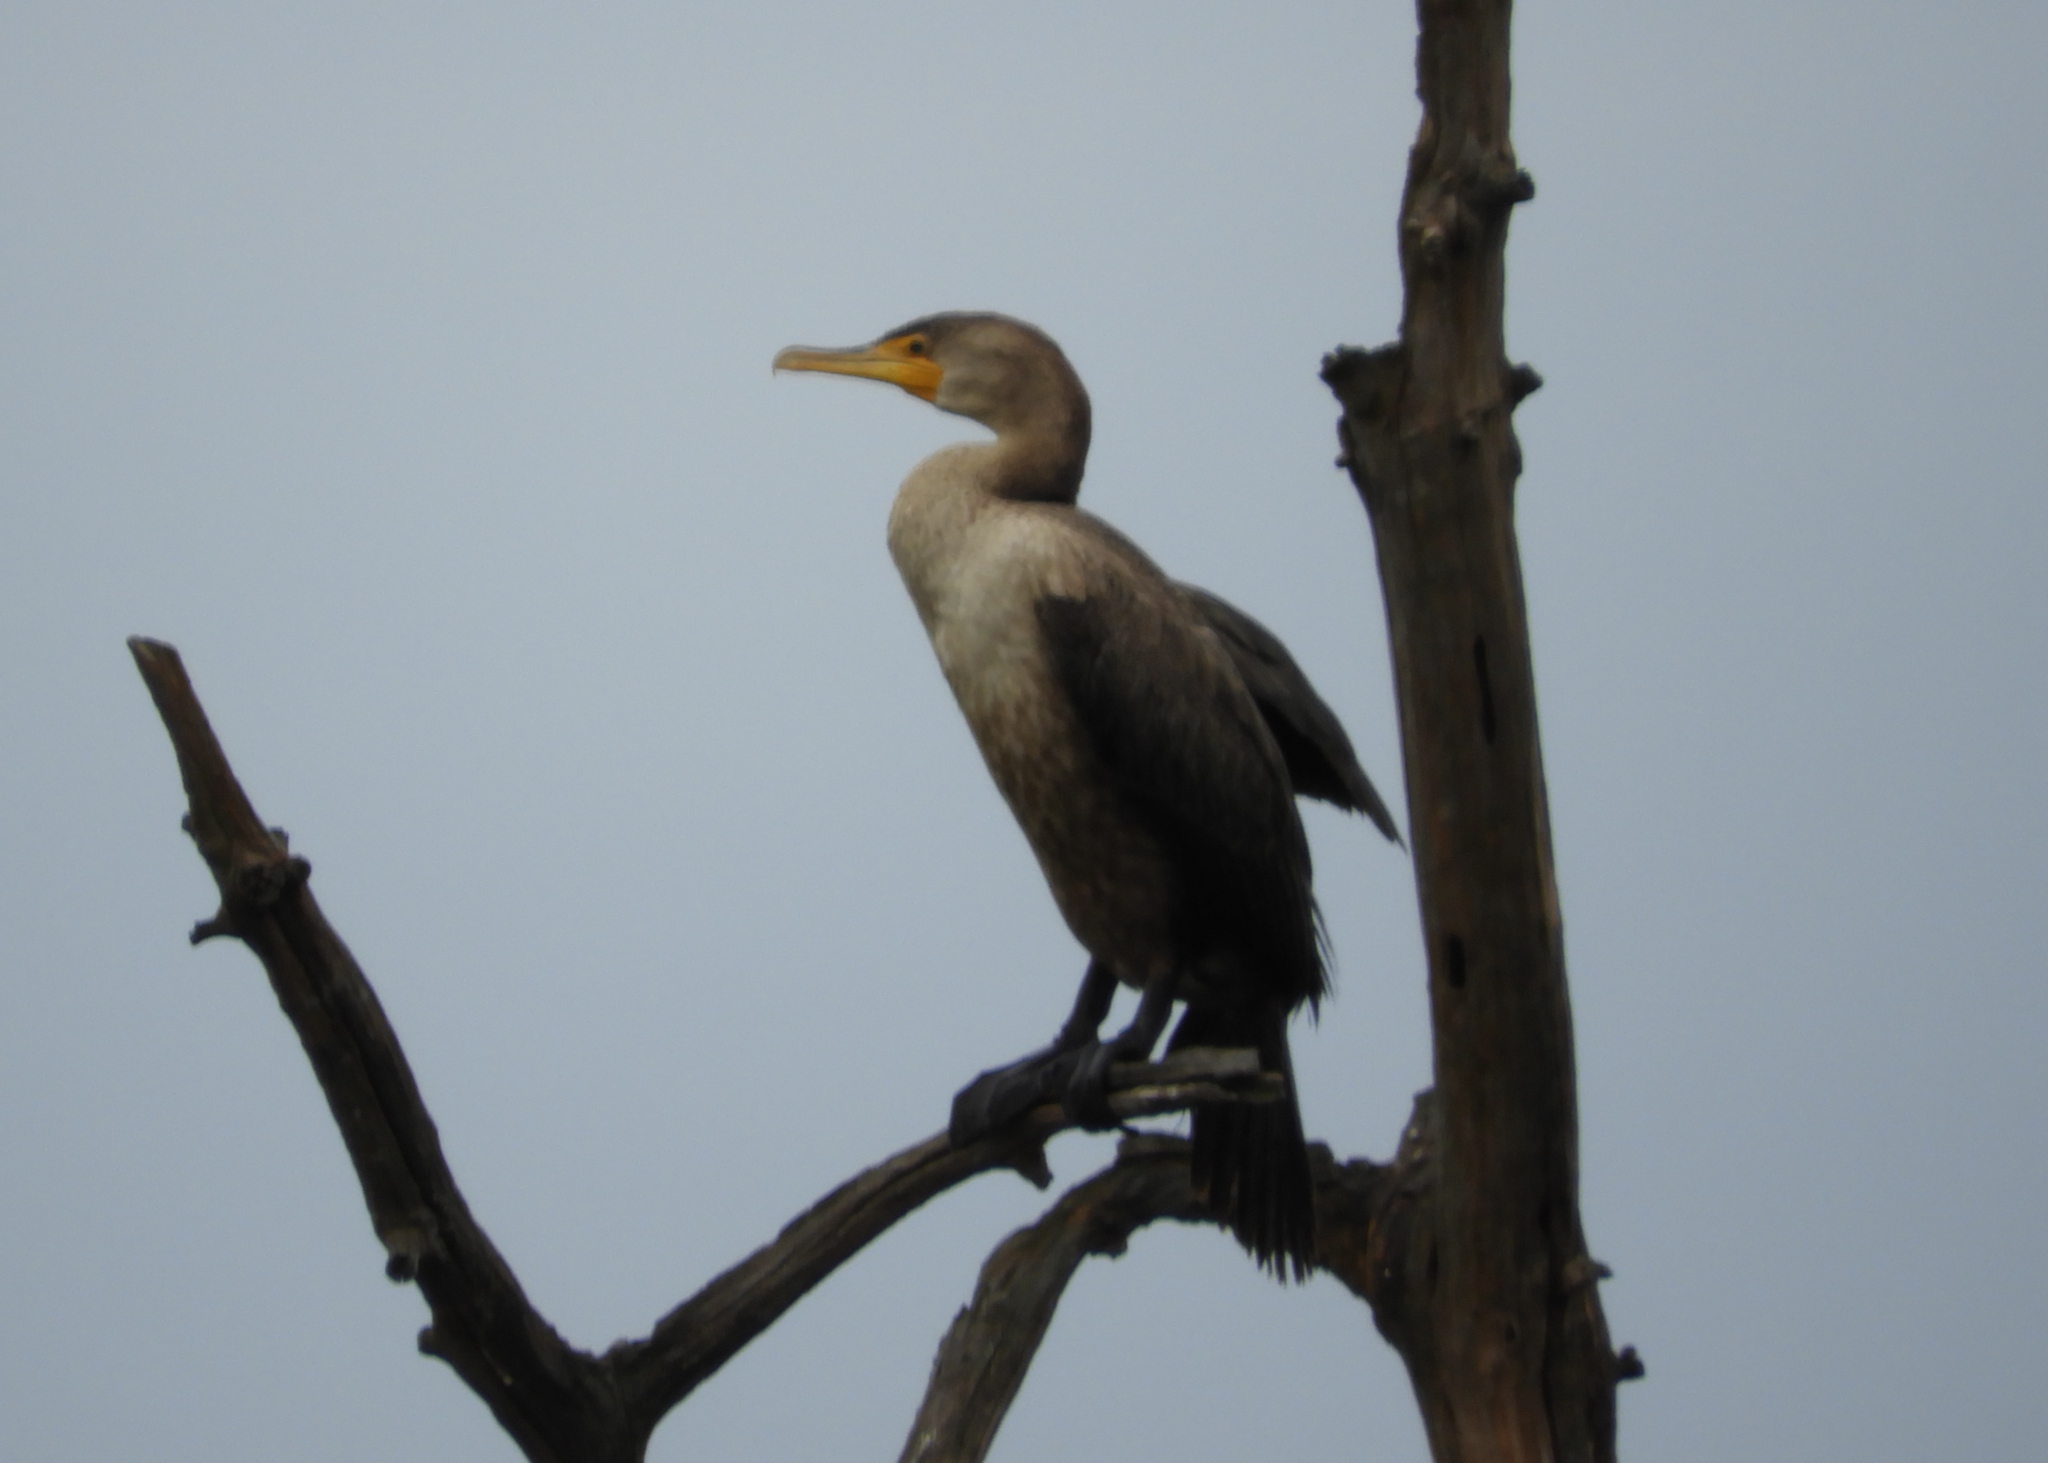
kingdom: Animalia
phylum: Chordata
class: Aves
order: Suliformes
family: Phalacrocoracidae
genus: Phalacrocorax
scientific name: Phalacrocorax auritus
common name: Double-crested cormorant
